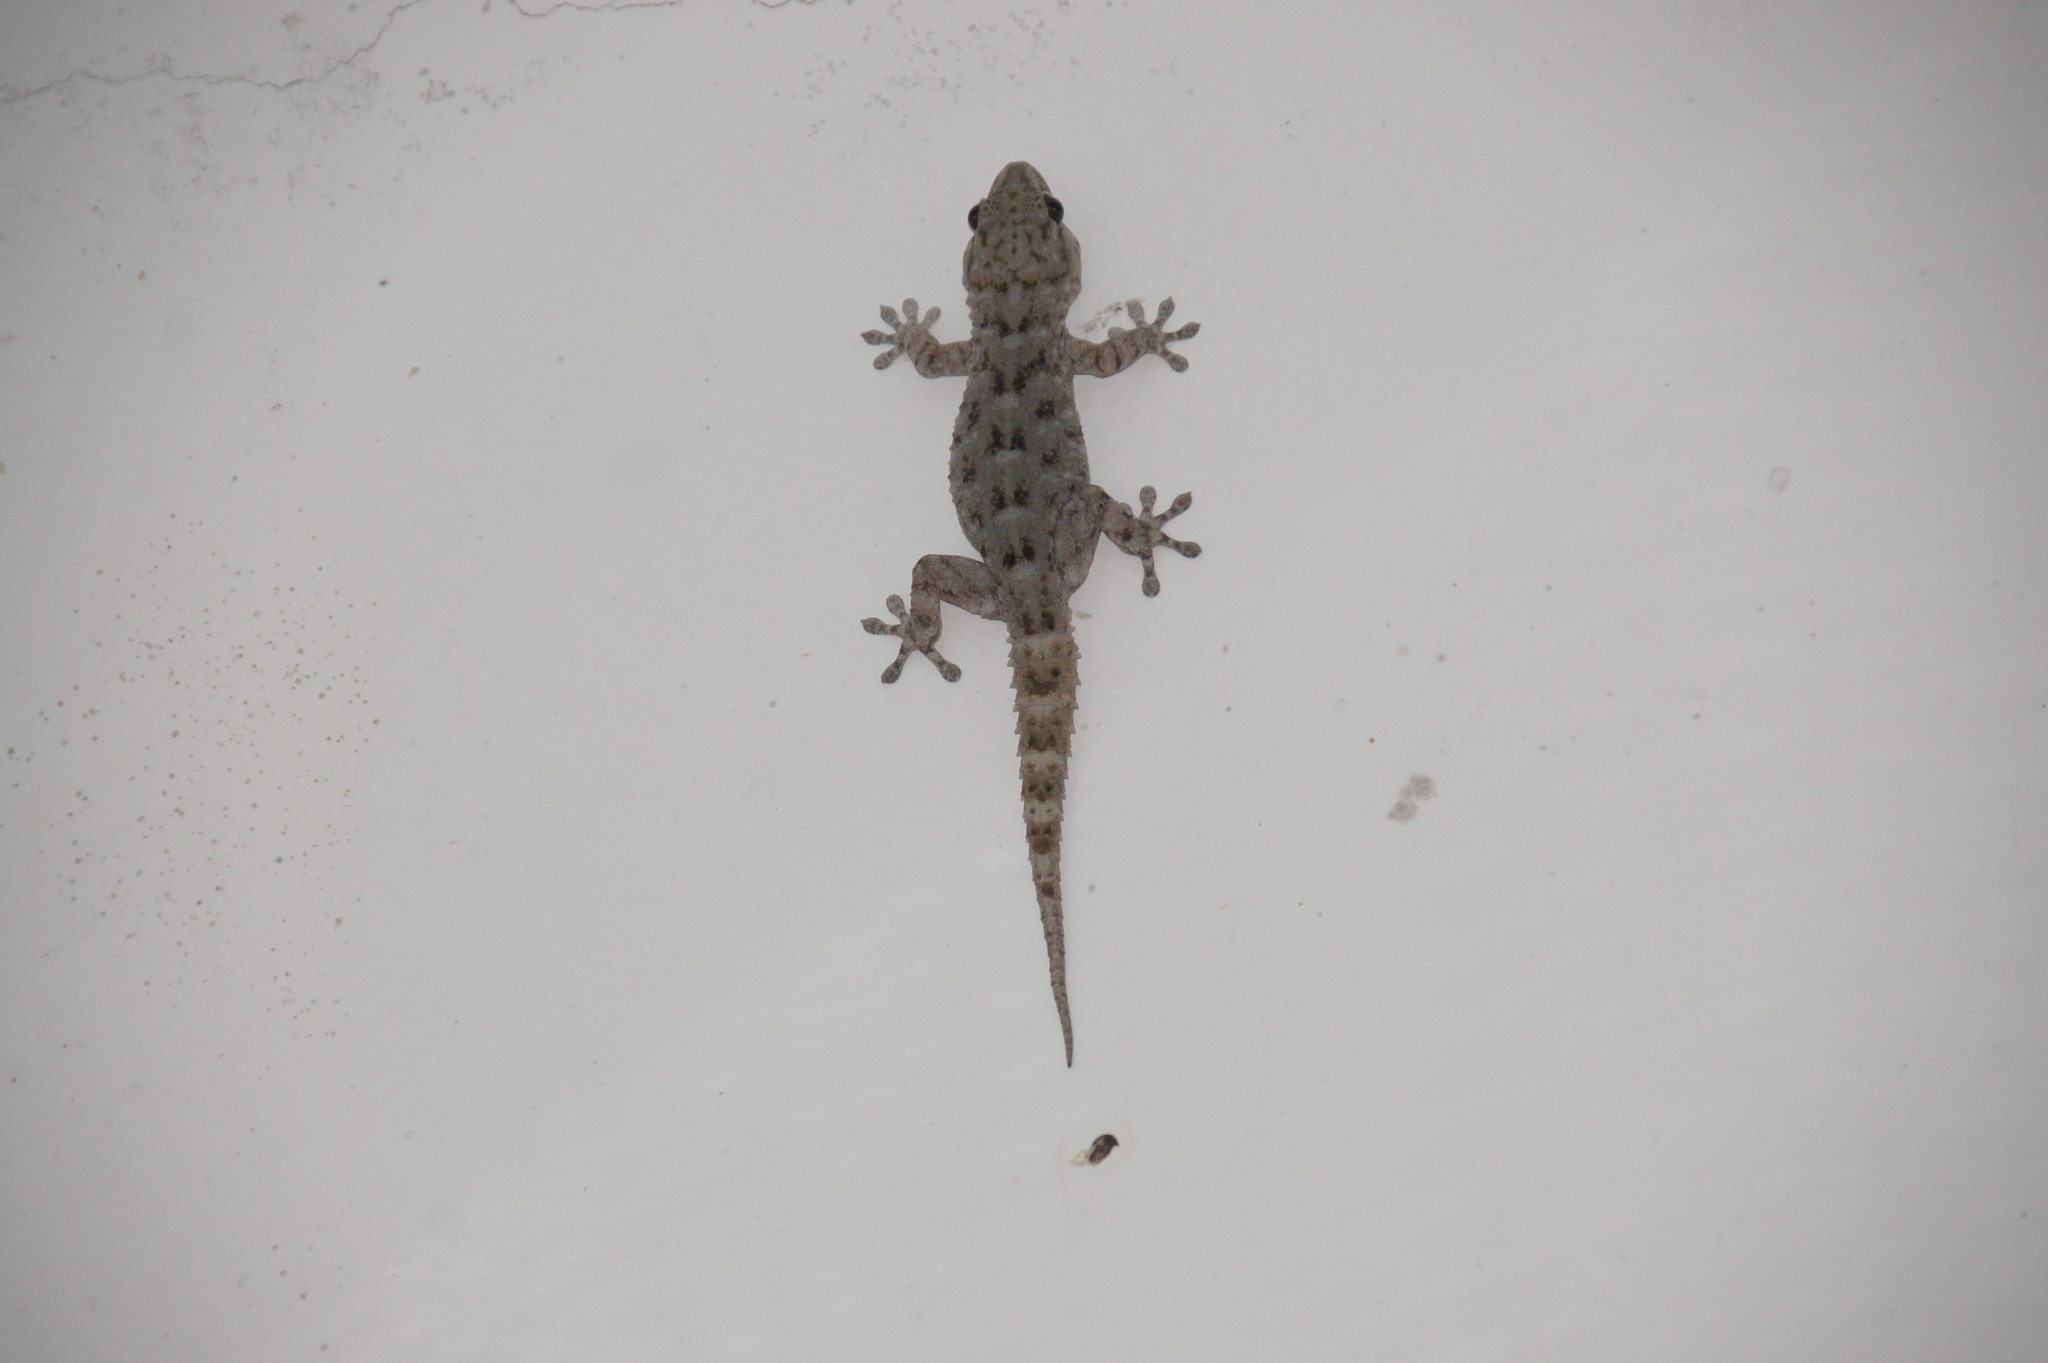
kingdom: Animalia
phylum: Chordata
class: Squamata
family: Phyllodactylidae
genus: Tarentola
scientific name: Tarentola delalandii
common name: Tenerife wall gecko
